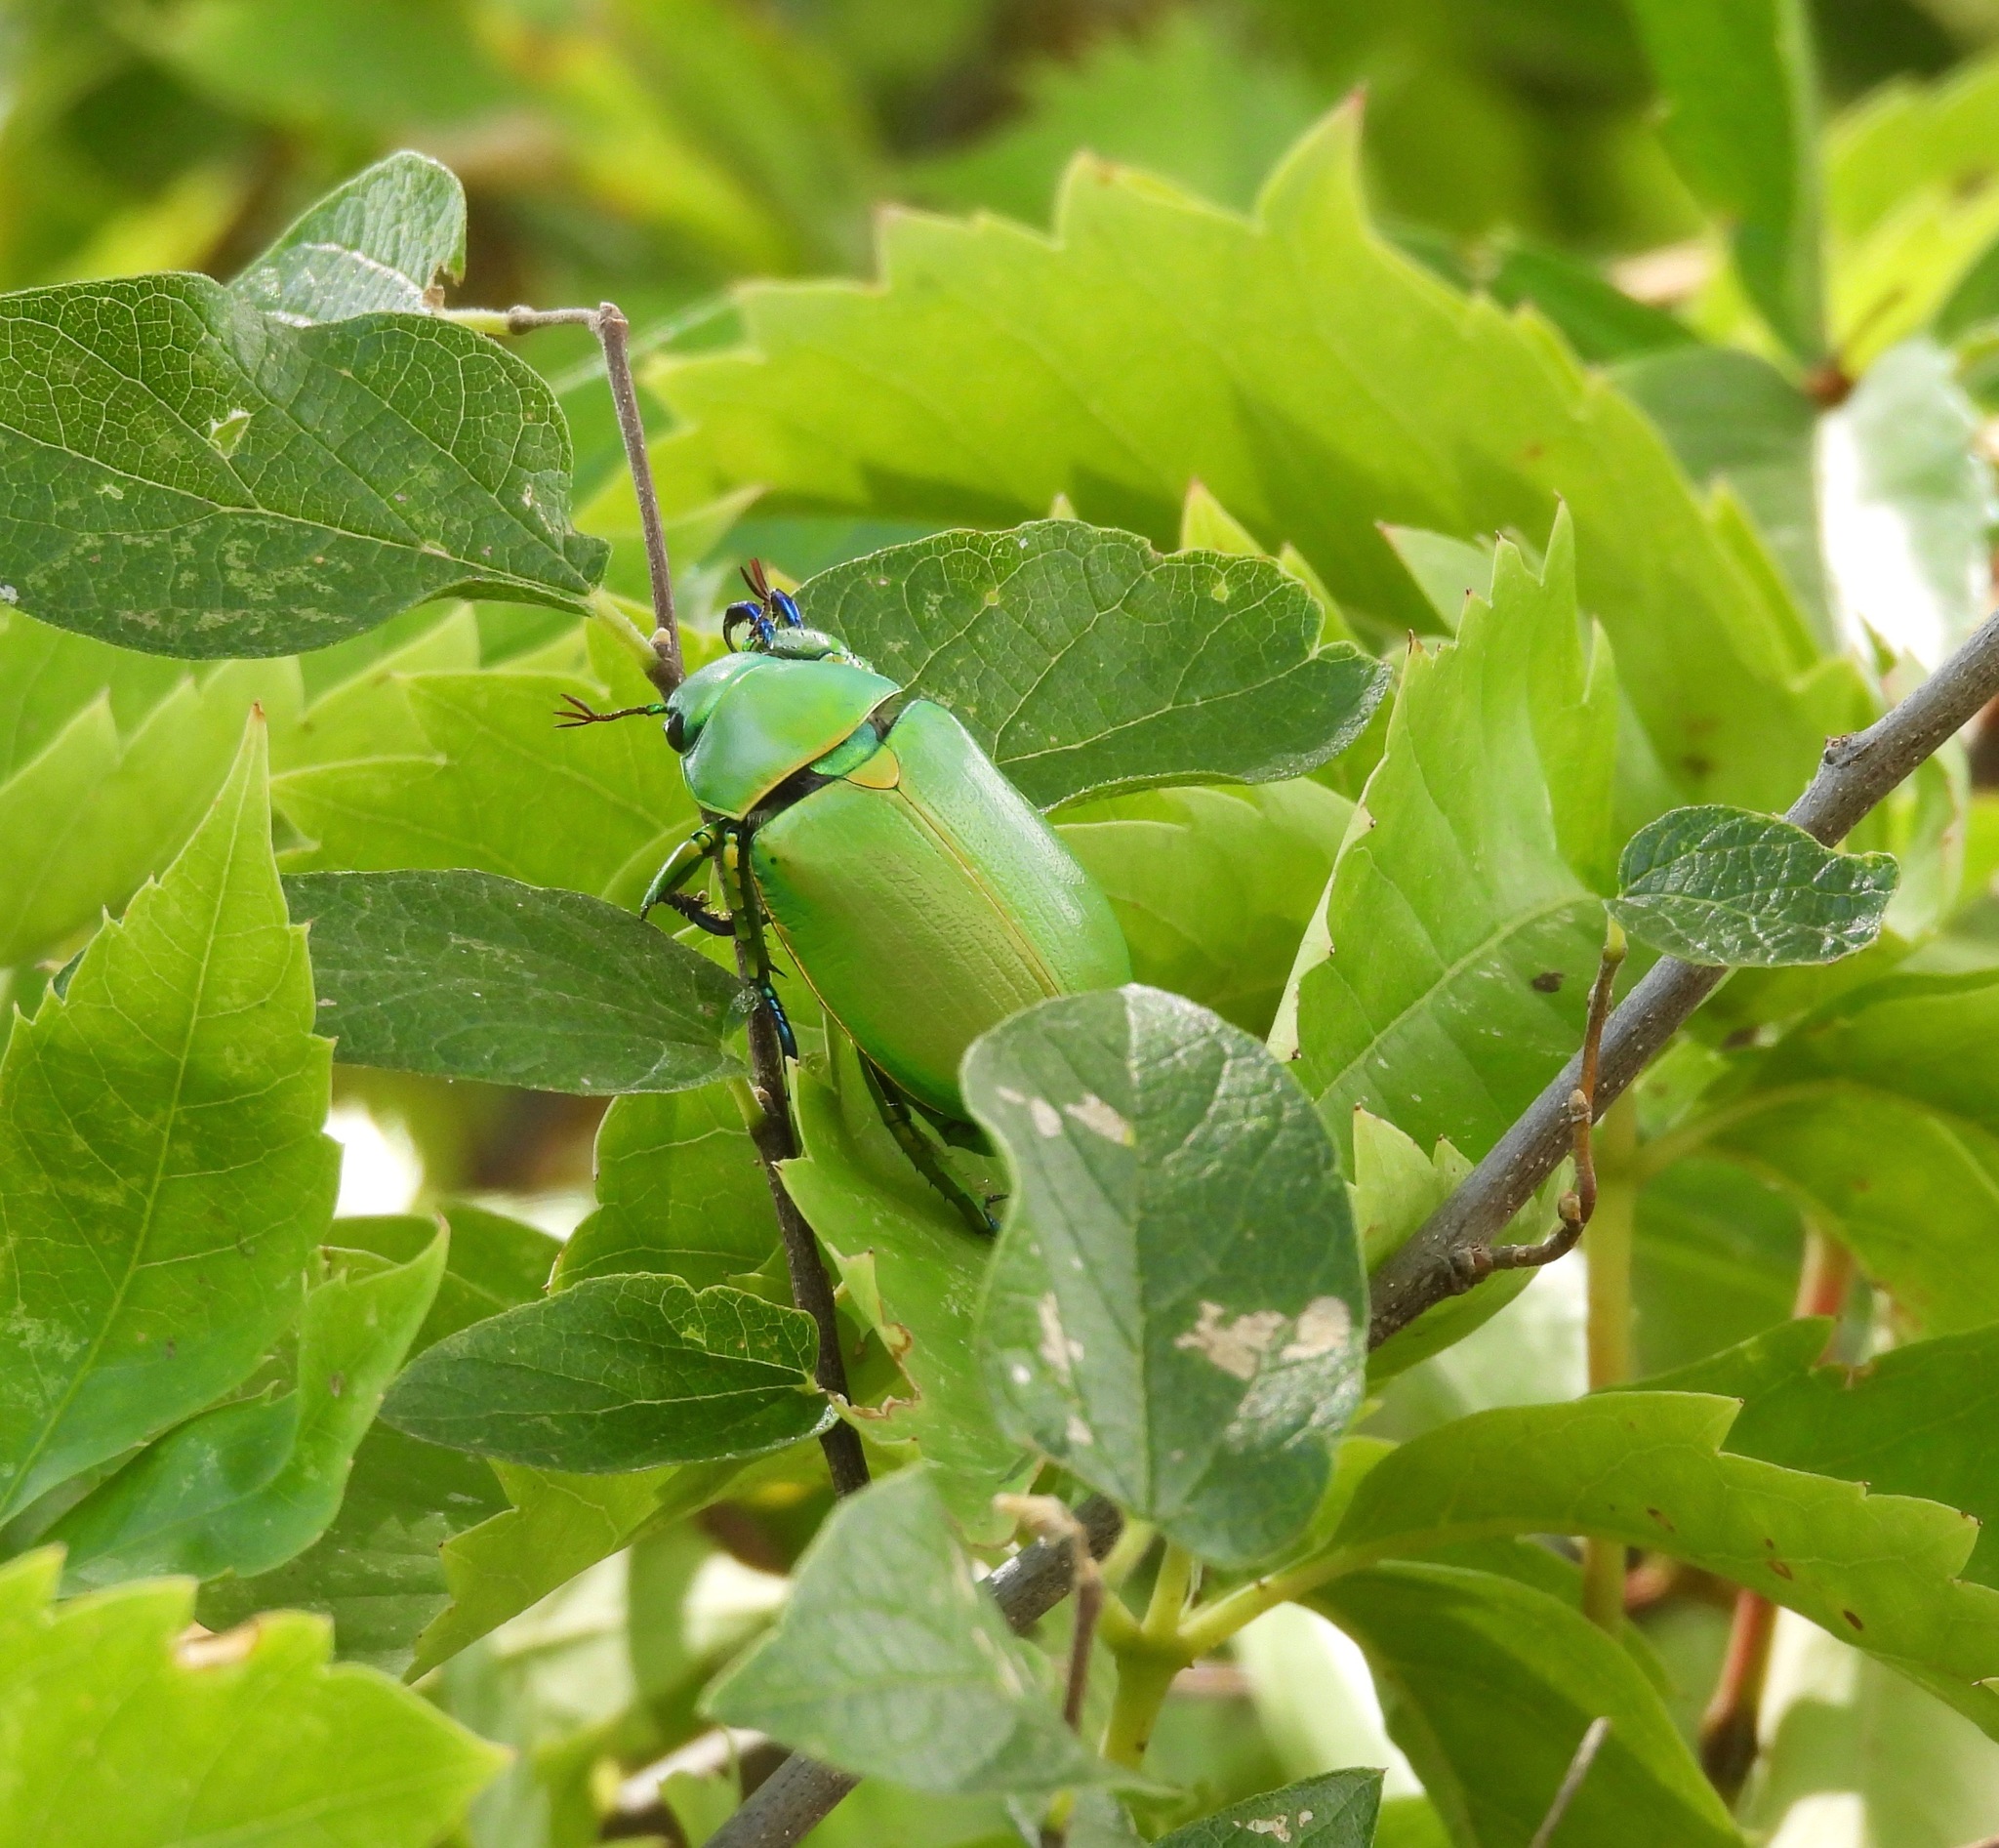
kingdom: Animalia
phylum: Arthropoda
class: Insecta
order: Coleoptera
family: Scarabaeidae
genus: Chrysina
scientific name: Chrysina woodi
